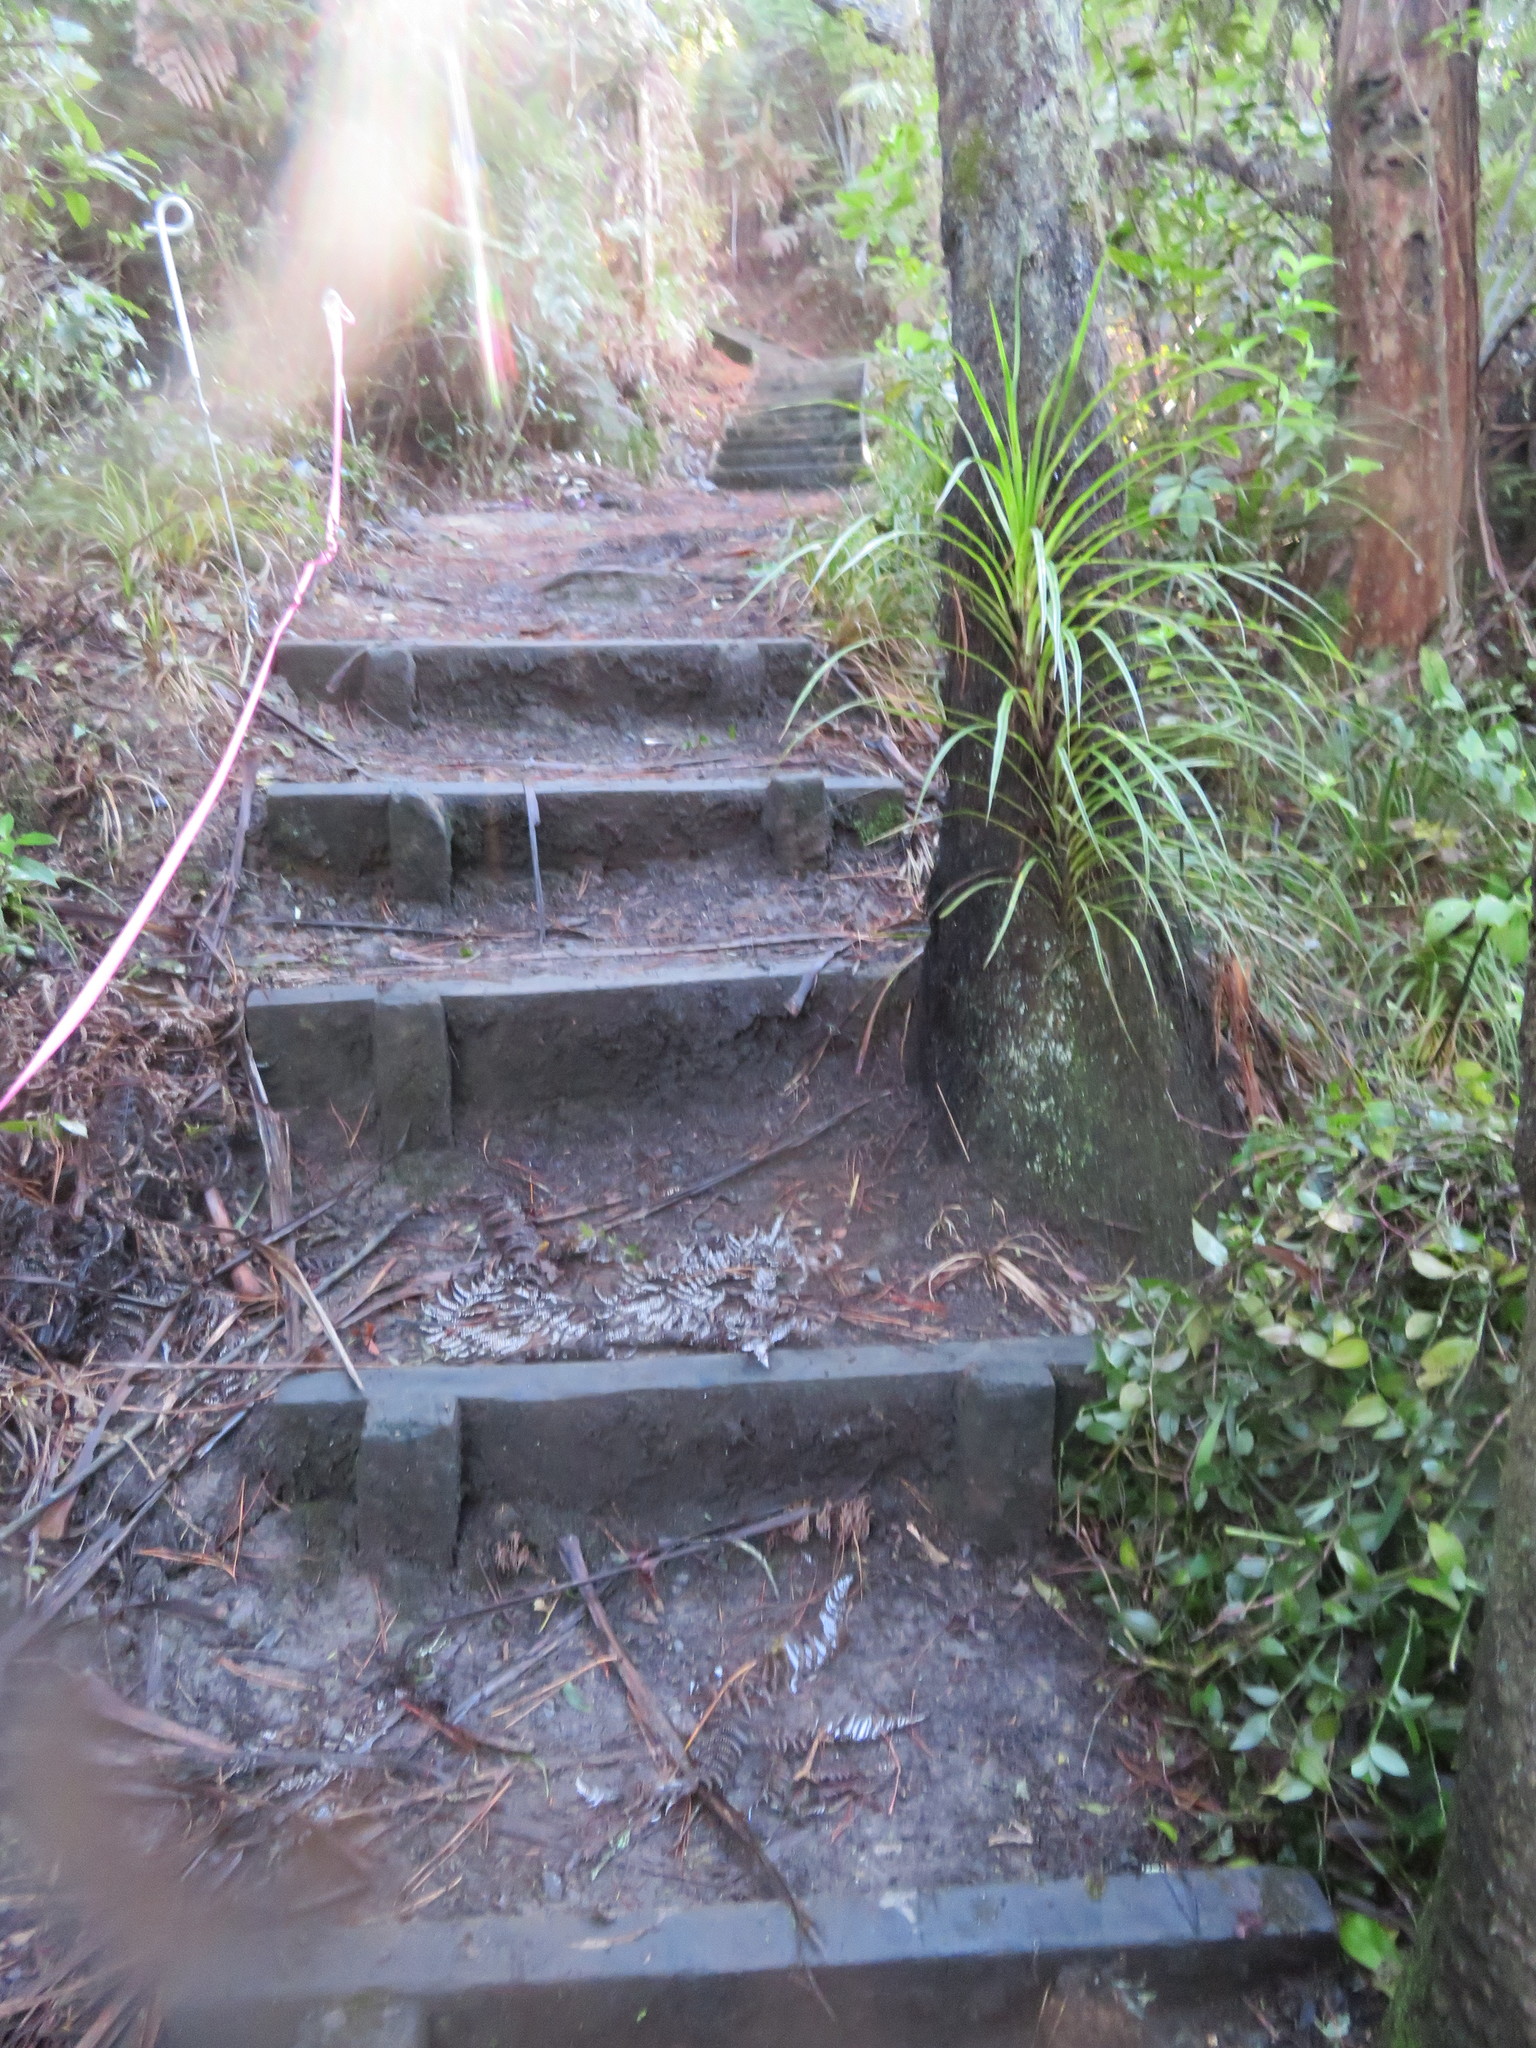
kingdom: Plantae
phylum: Tracheophyta
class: Liliopsida
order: Pandanales
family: Pandanaceae
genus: Freycinetia
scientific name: Freycinetia banksii
